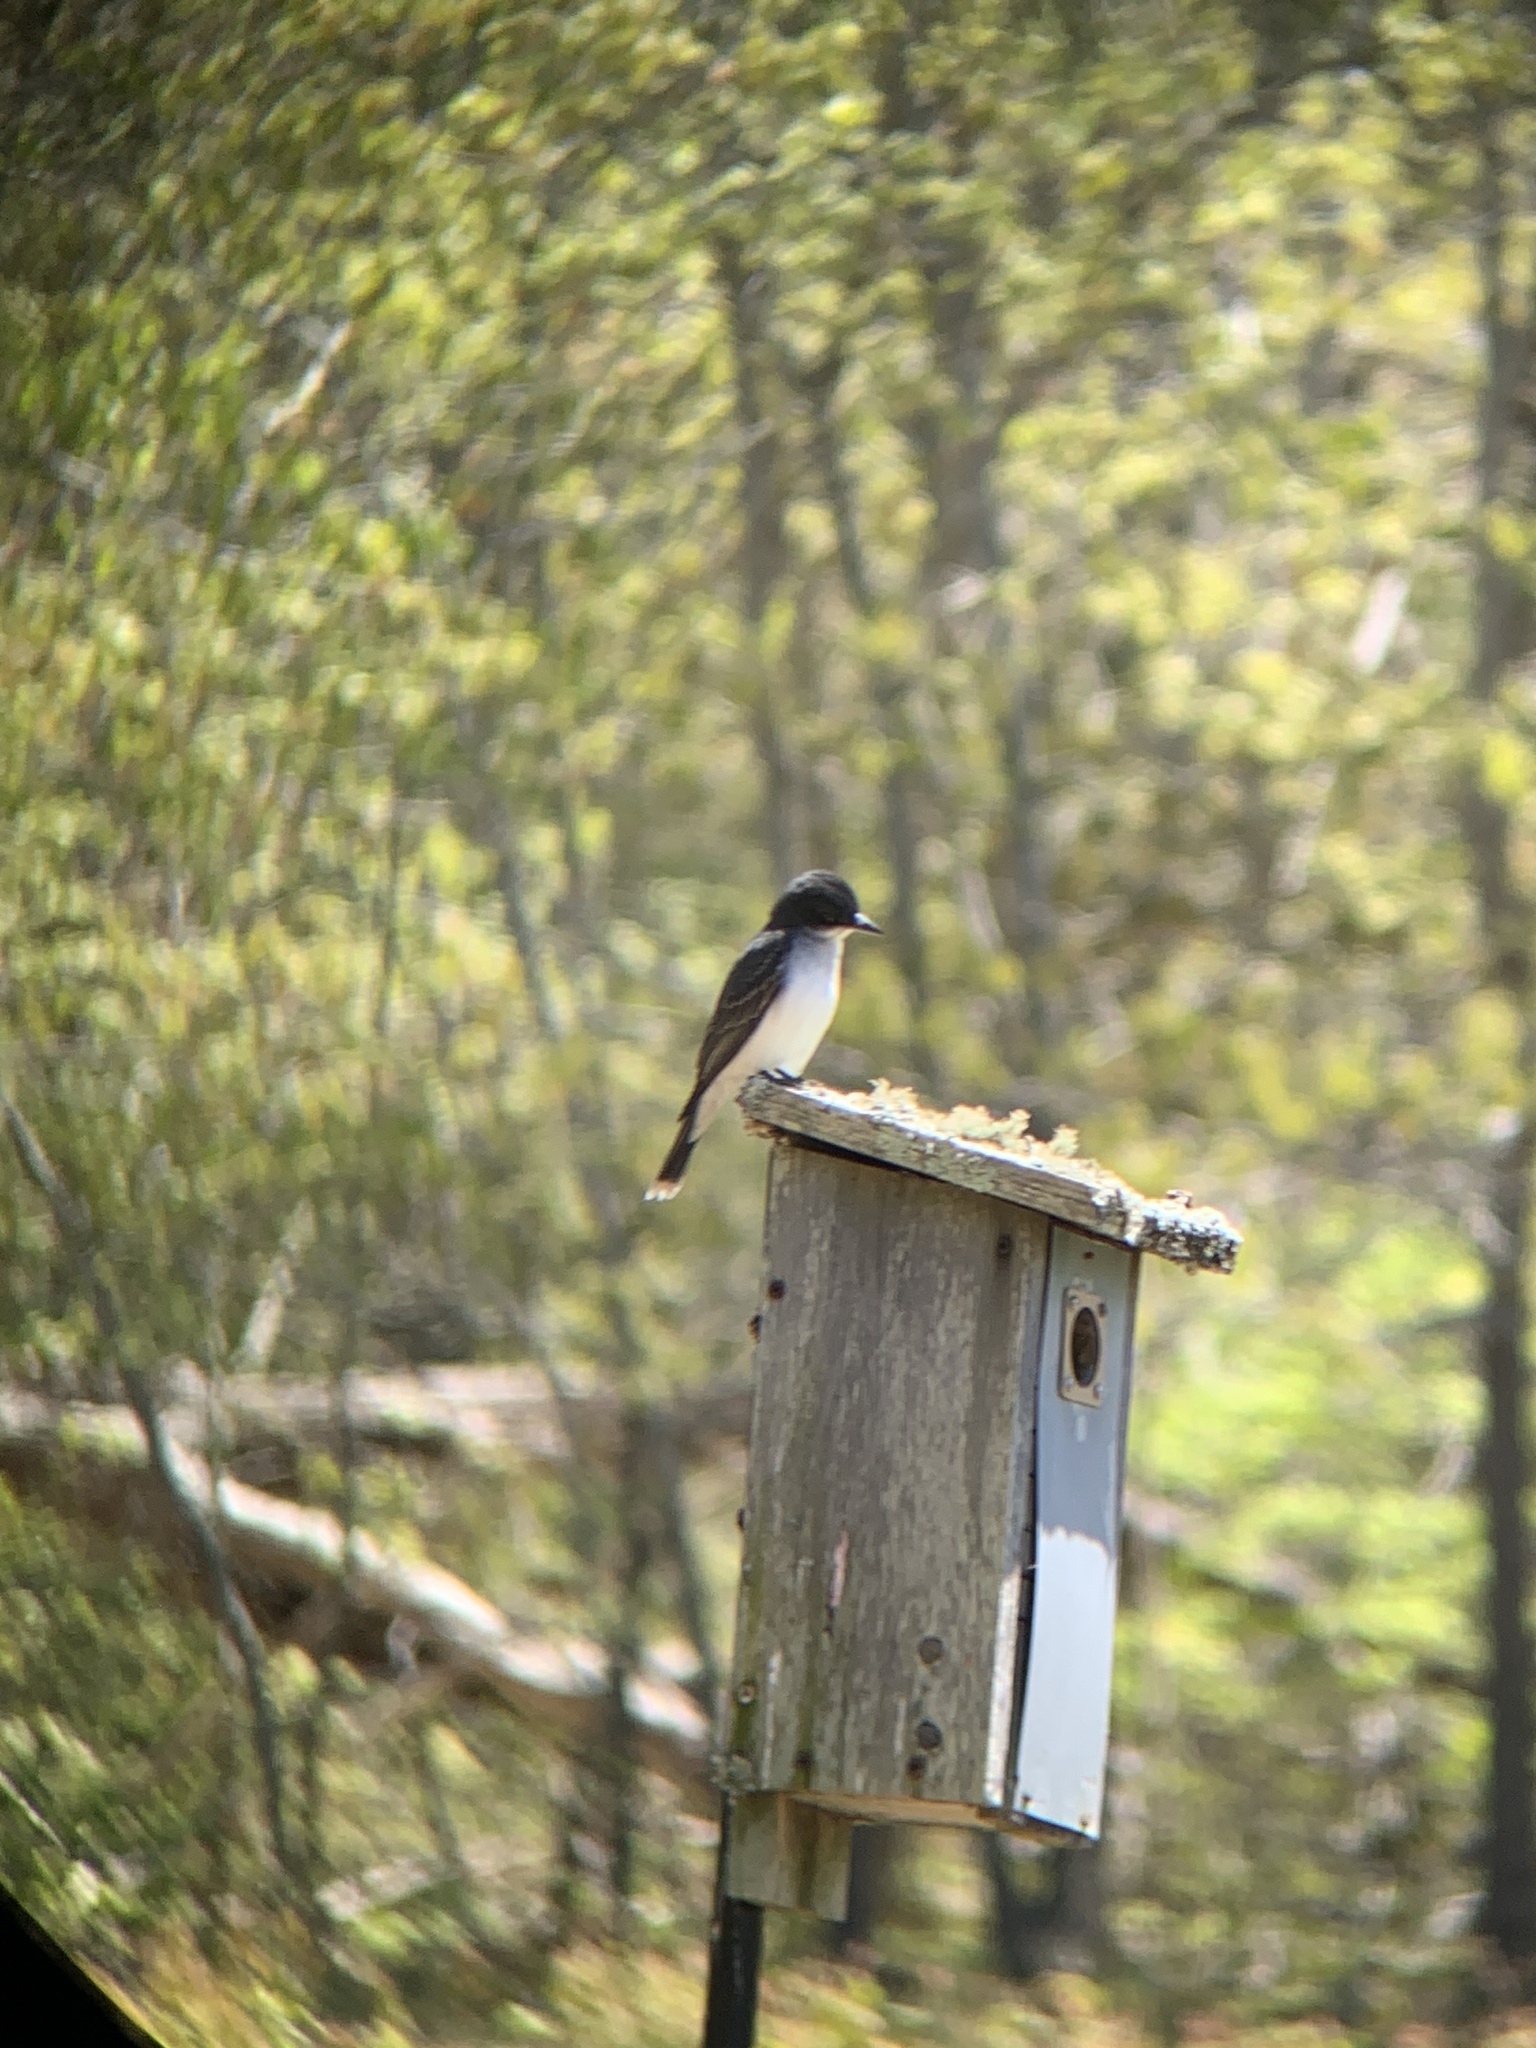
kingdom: Animalia
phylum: Chordata
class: Aves
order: Passeriformes
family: Tyrannidae
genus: Tyrannus
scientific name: Tyrannus tyrannus
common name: Eastern kingbird
